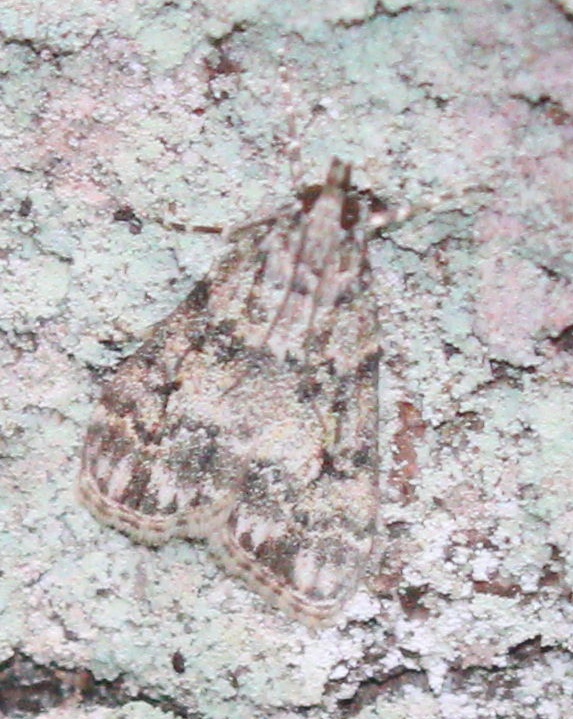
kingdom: Animalia
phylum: Arthropoda
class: Insecta
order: Lepidoptera
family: Crambidae
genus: Eudonia
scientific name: Eudonia lacustrata
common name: Little grey
